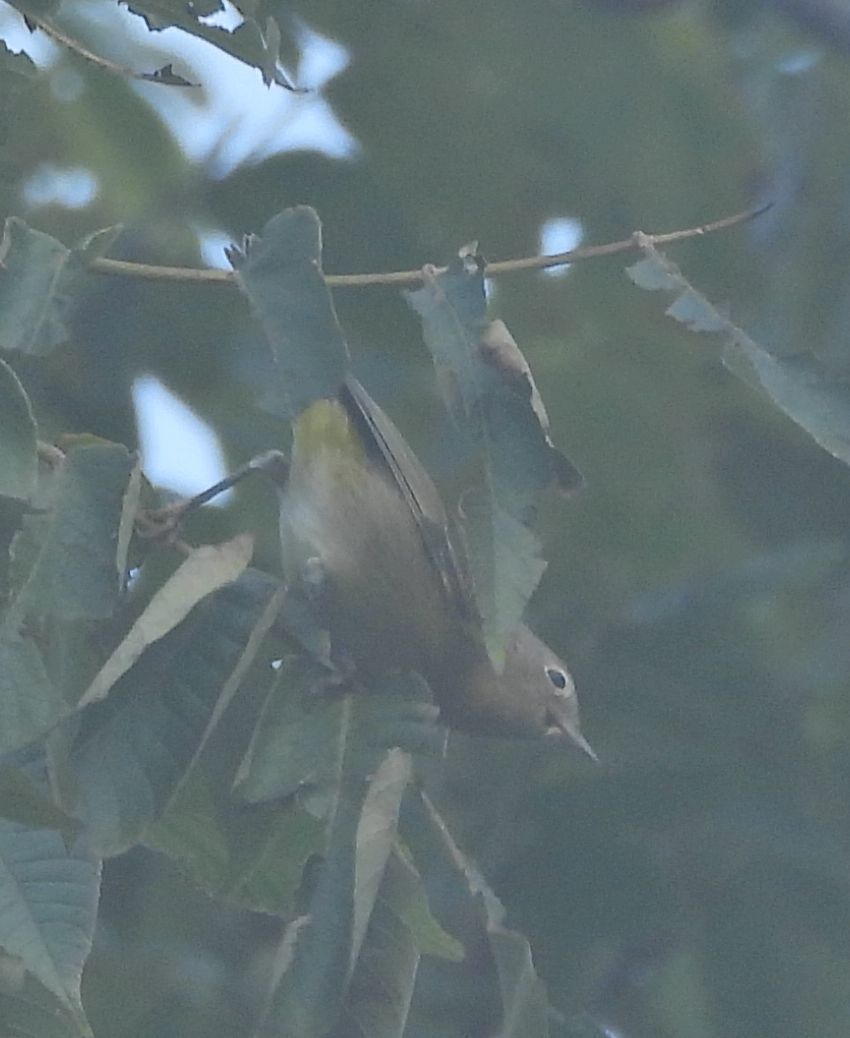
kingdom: Animalia
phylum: Chordata
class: Aves
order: Passeriformes
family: Parulidae
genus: Leiothlypis
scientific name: Leiothlypis ruficapilla
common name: Nashville warbler
